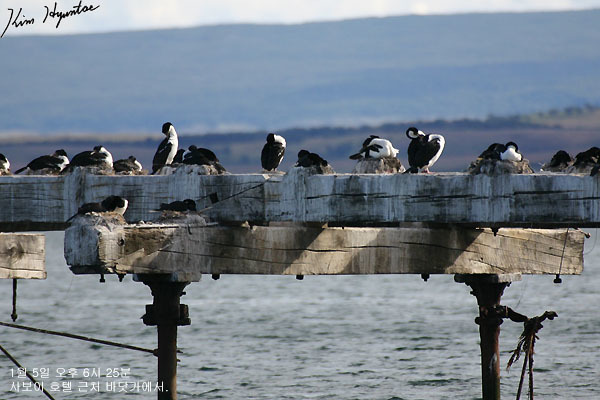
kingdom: Animalia
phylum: Chordata
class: Aves
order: Suliformes
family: Phalacrocoracidae
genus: Leucocarbo
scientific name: Leucocarbo atriceps
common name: Imperial shag
